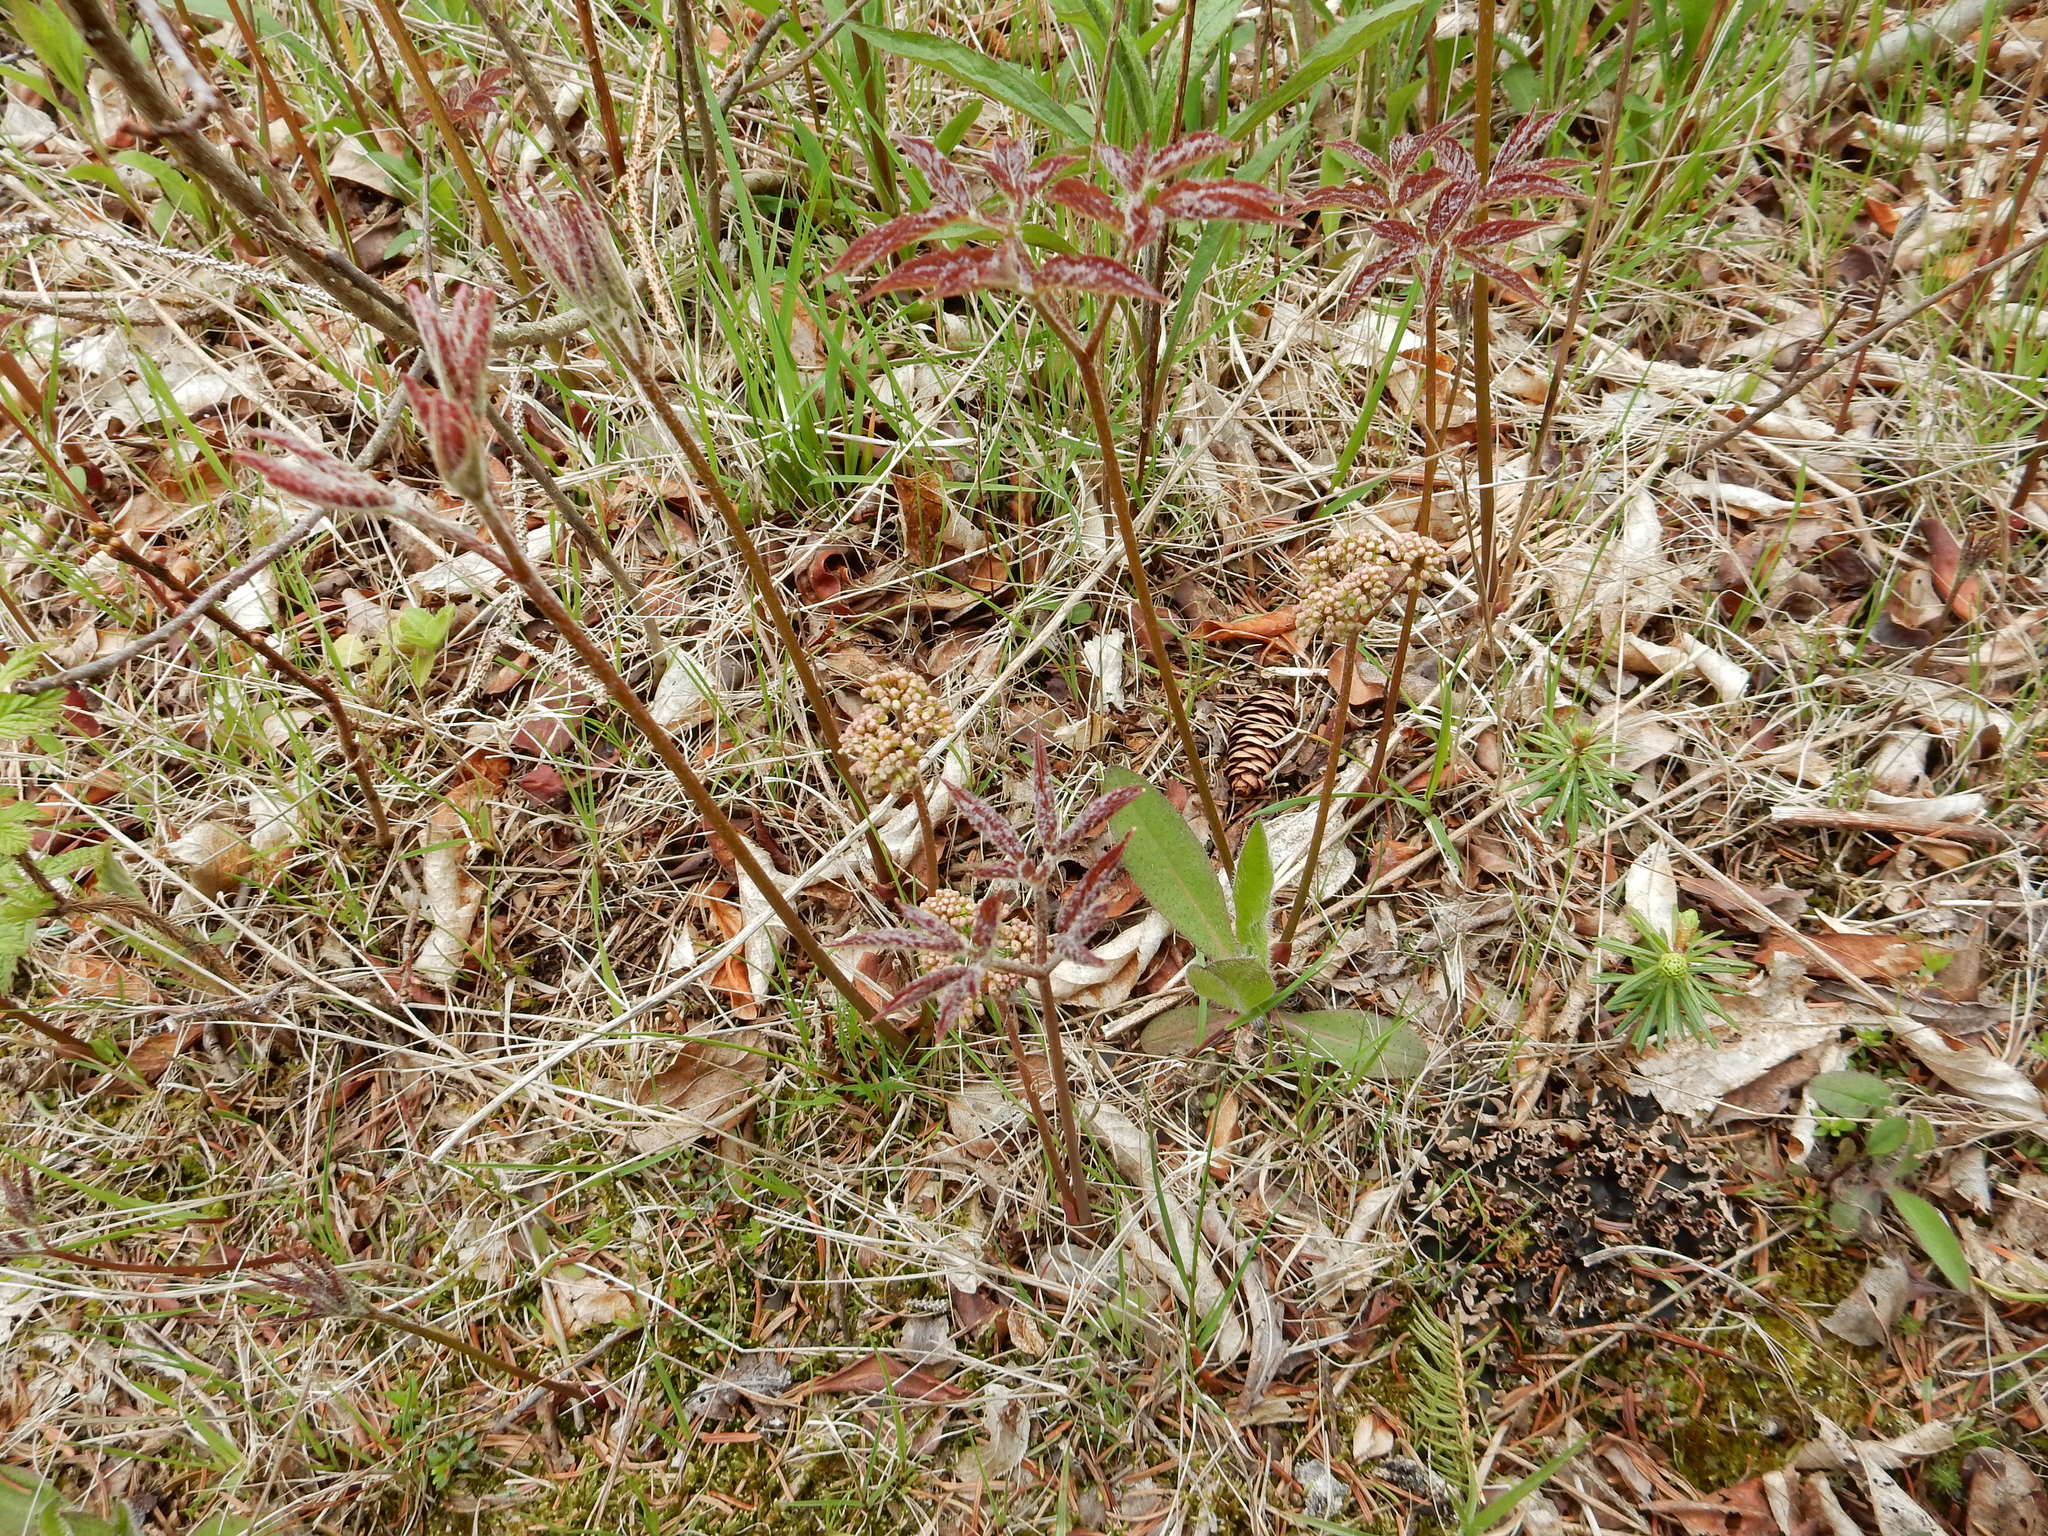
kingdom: Plantae
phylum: Tracheophyta
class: Magnoliopsida
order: Apiales
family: Araliaceae
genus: Aralia
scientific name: Aralia nudicaulis
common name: Wild sarsaparilla
